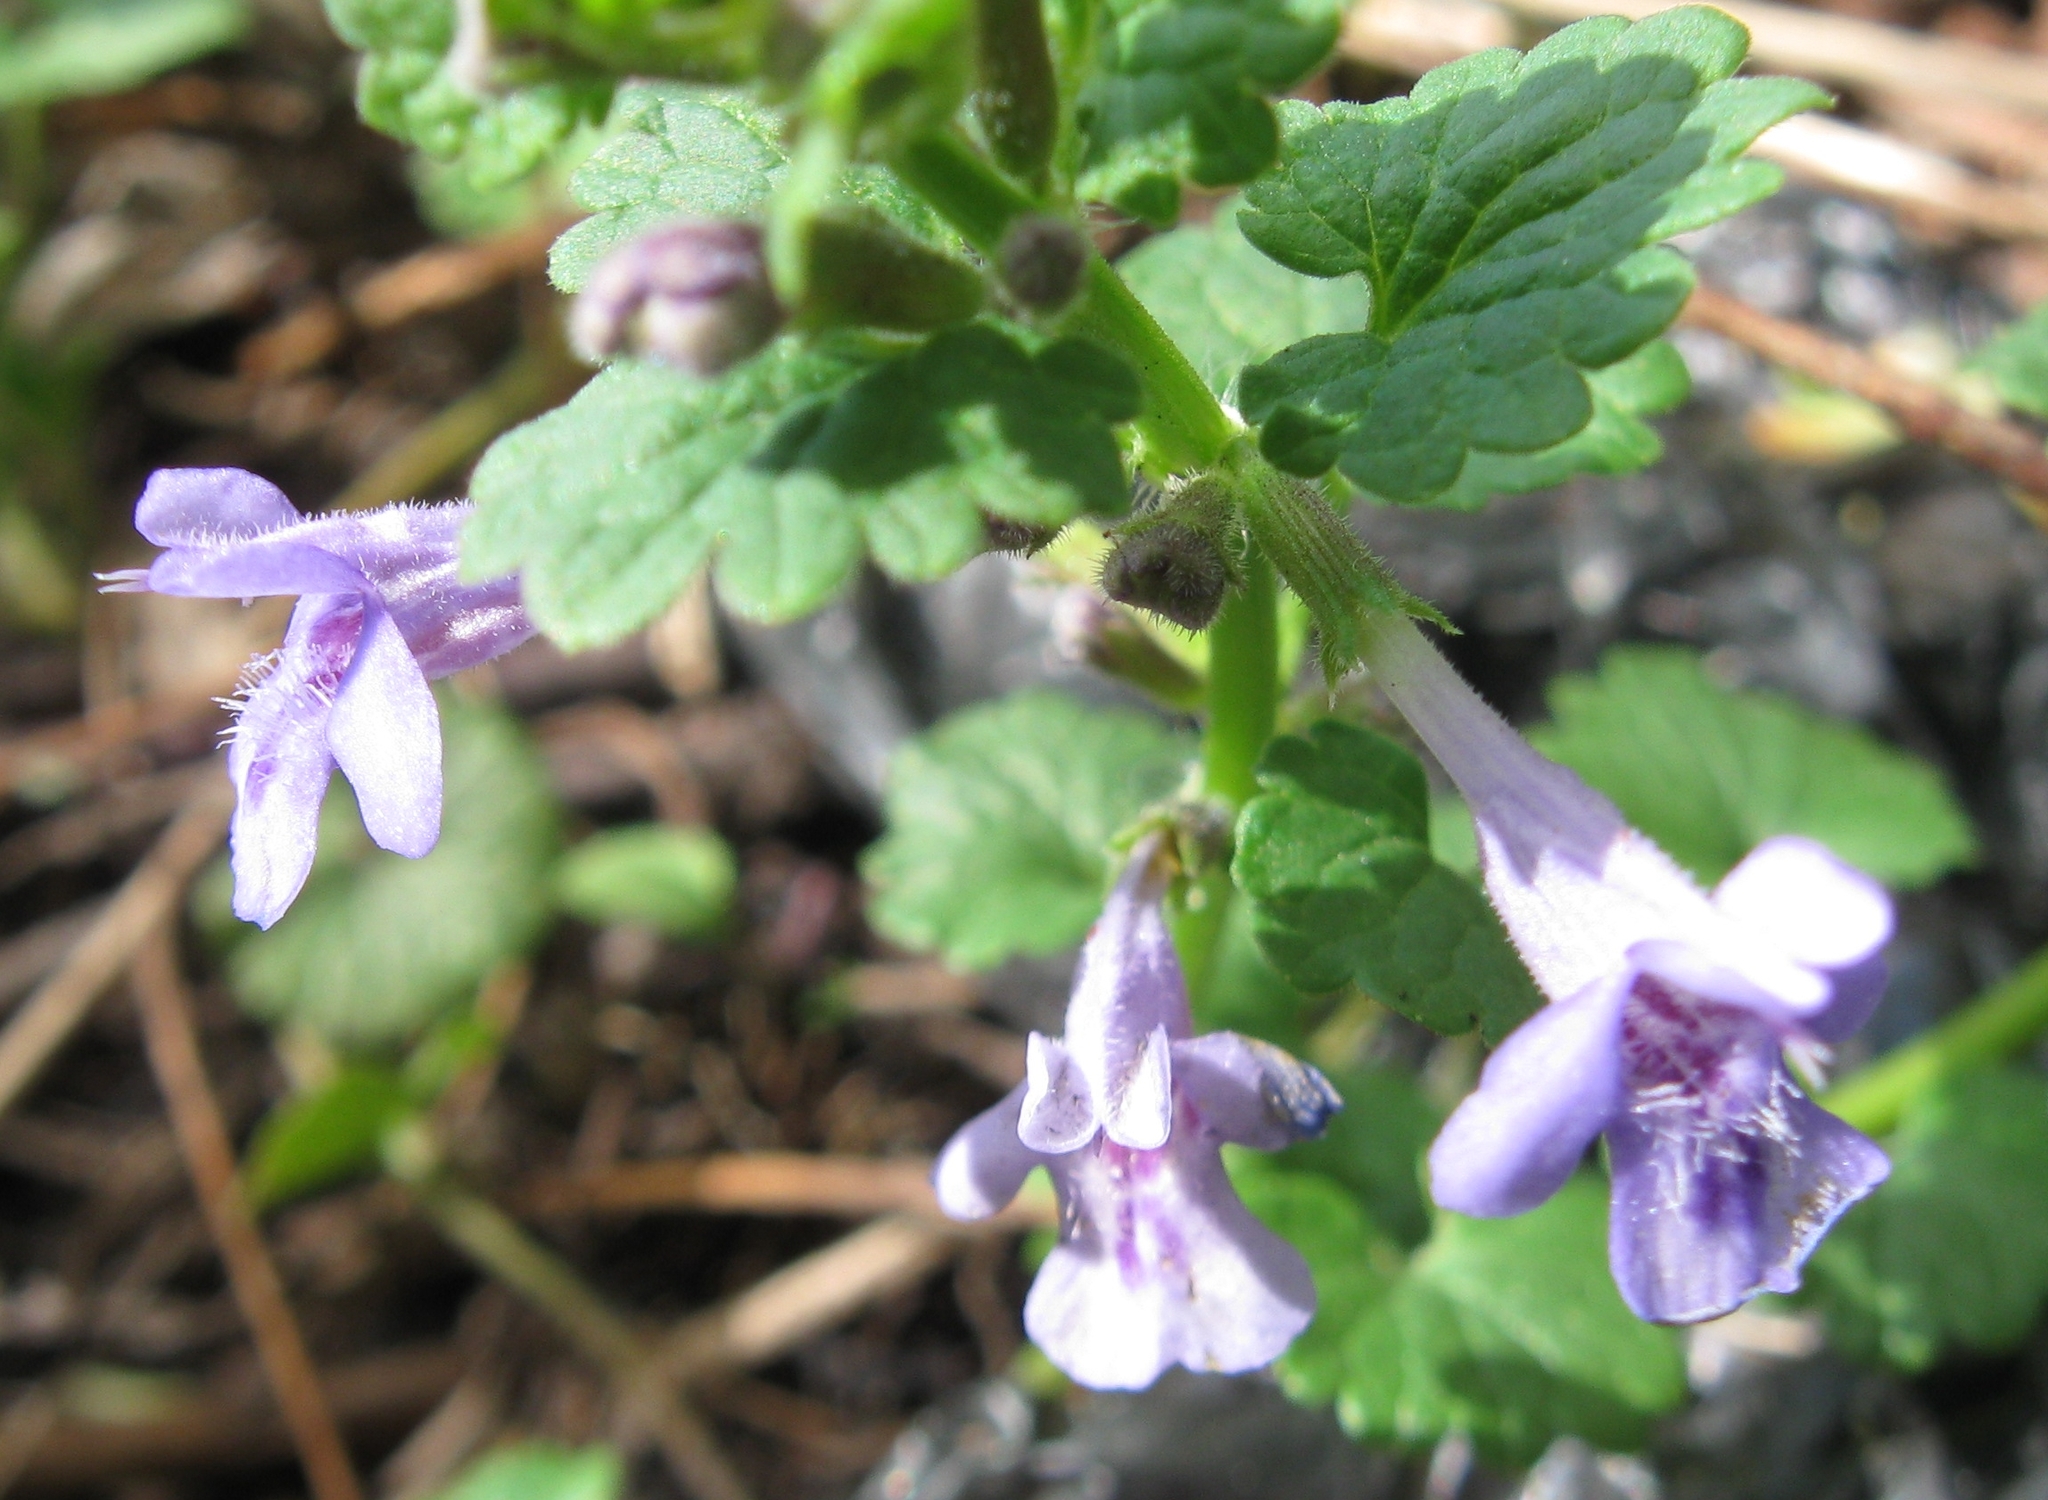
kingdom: Plantae
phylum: Tracheophyta
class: Magnoliopsida
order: Lamiales
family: Lamiaceae
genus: Glechoma
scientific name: Glechoma hederacea
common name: Ground ivy
